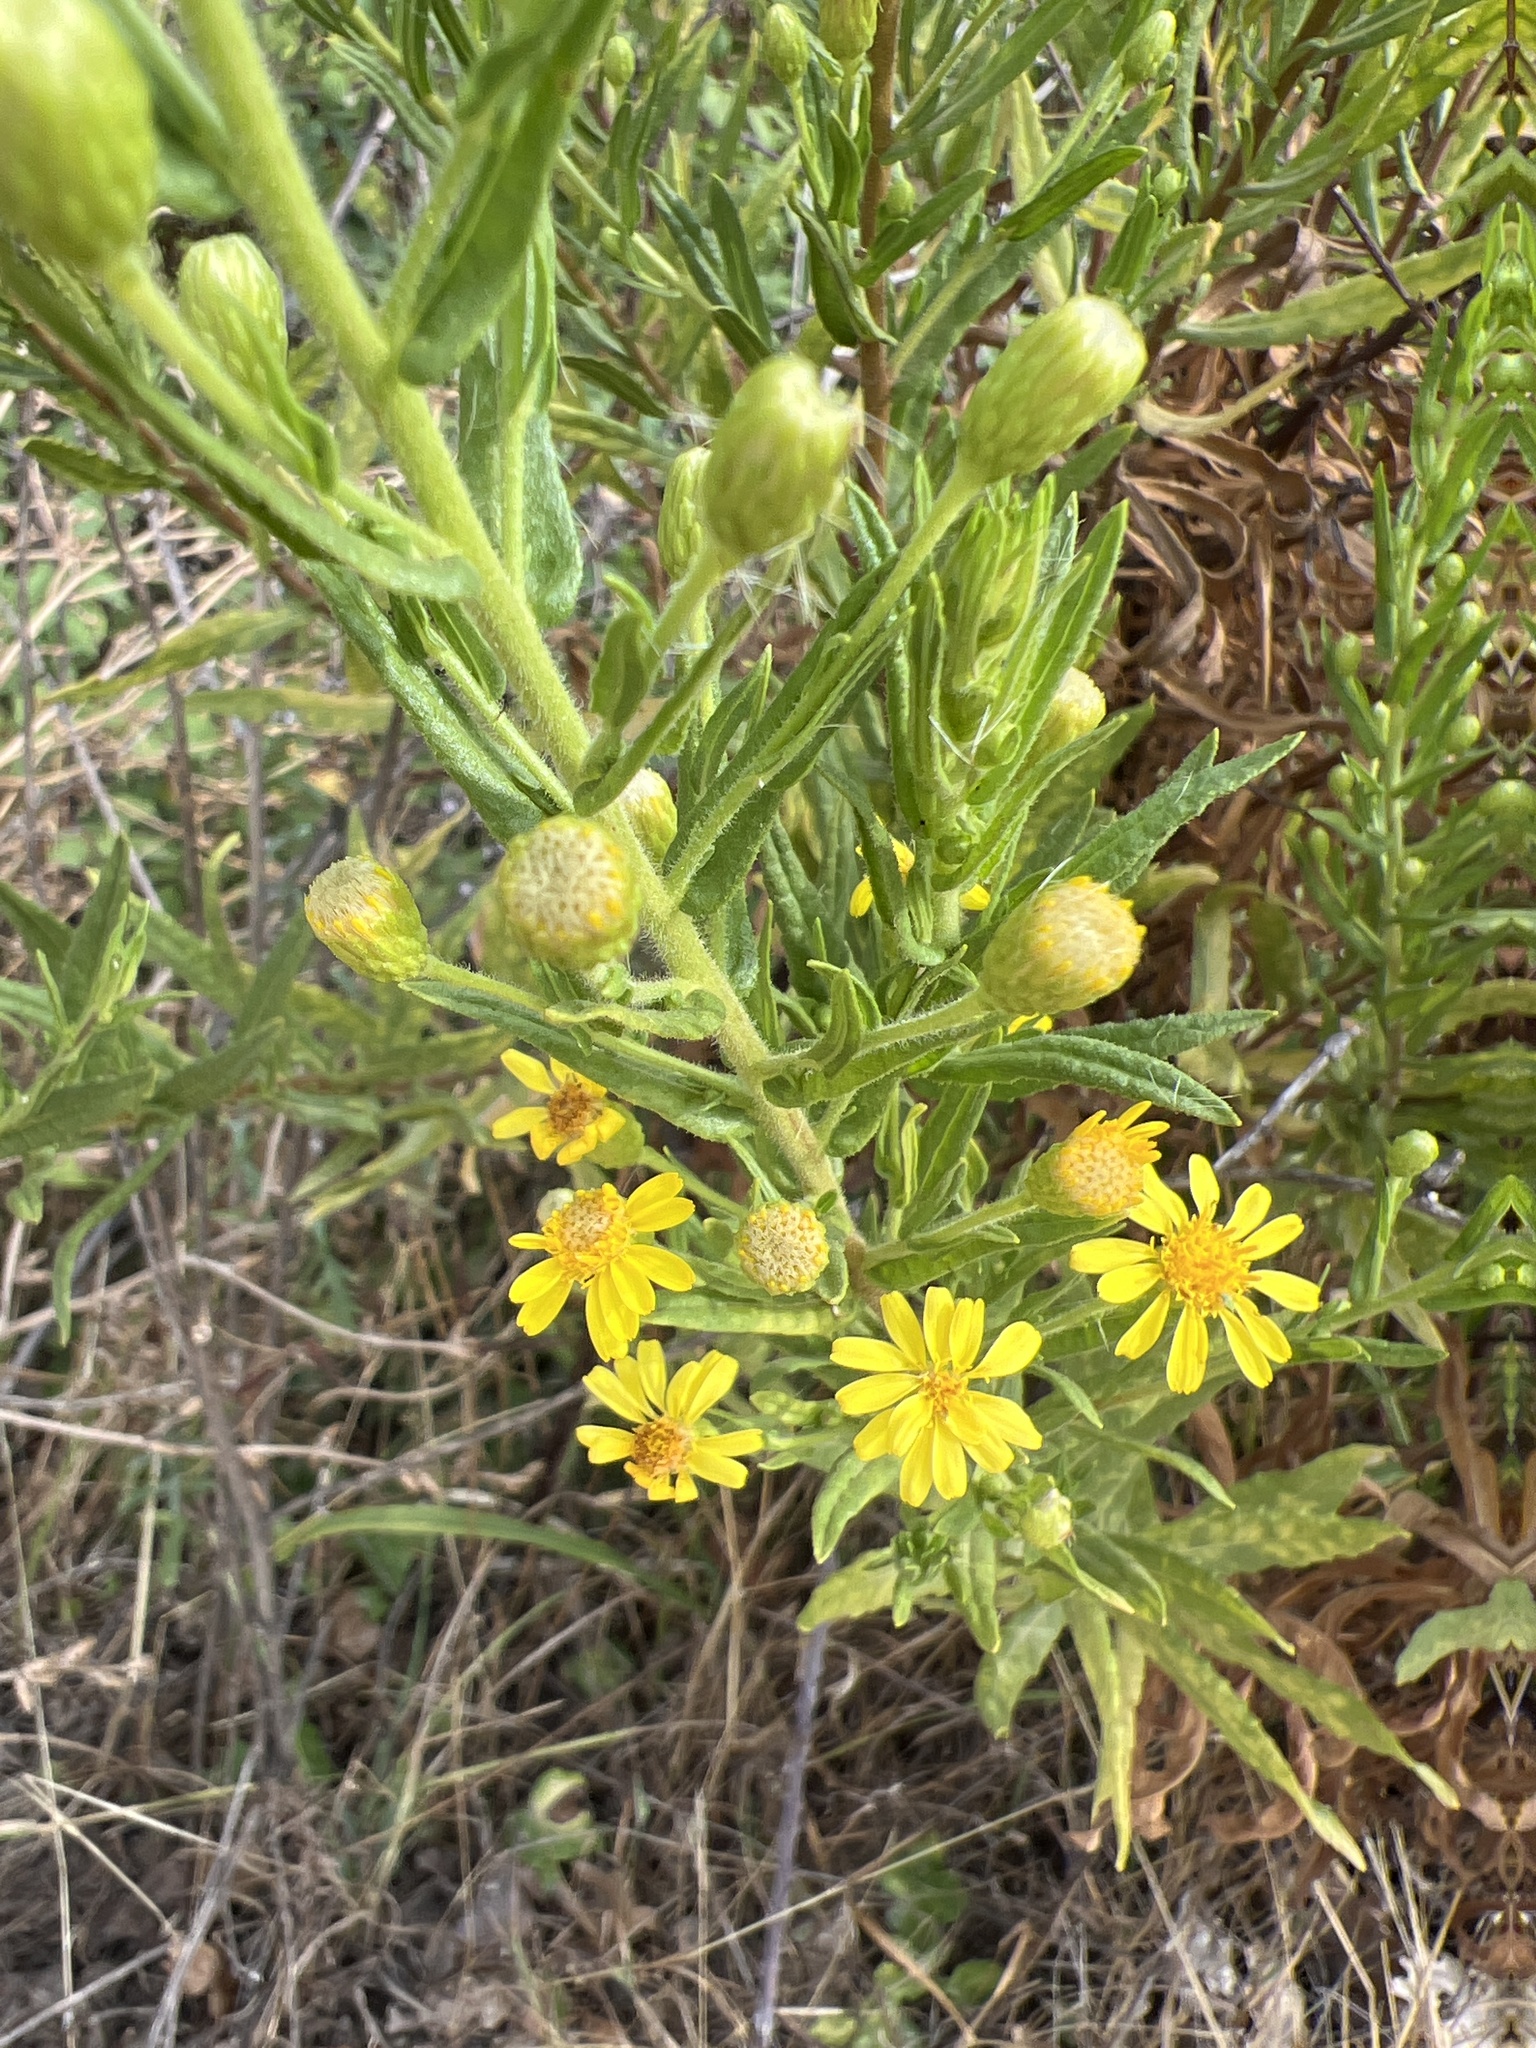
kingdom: Plantae
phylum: Tracheophyta
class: Magnoliopsida
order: Asterales
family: Asteraceae
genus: Dittrichia
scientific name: Dittrichia viscosa
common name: Woody fleabane
